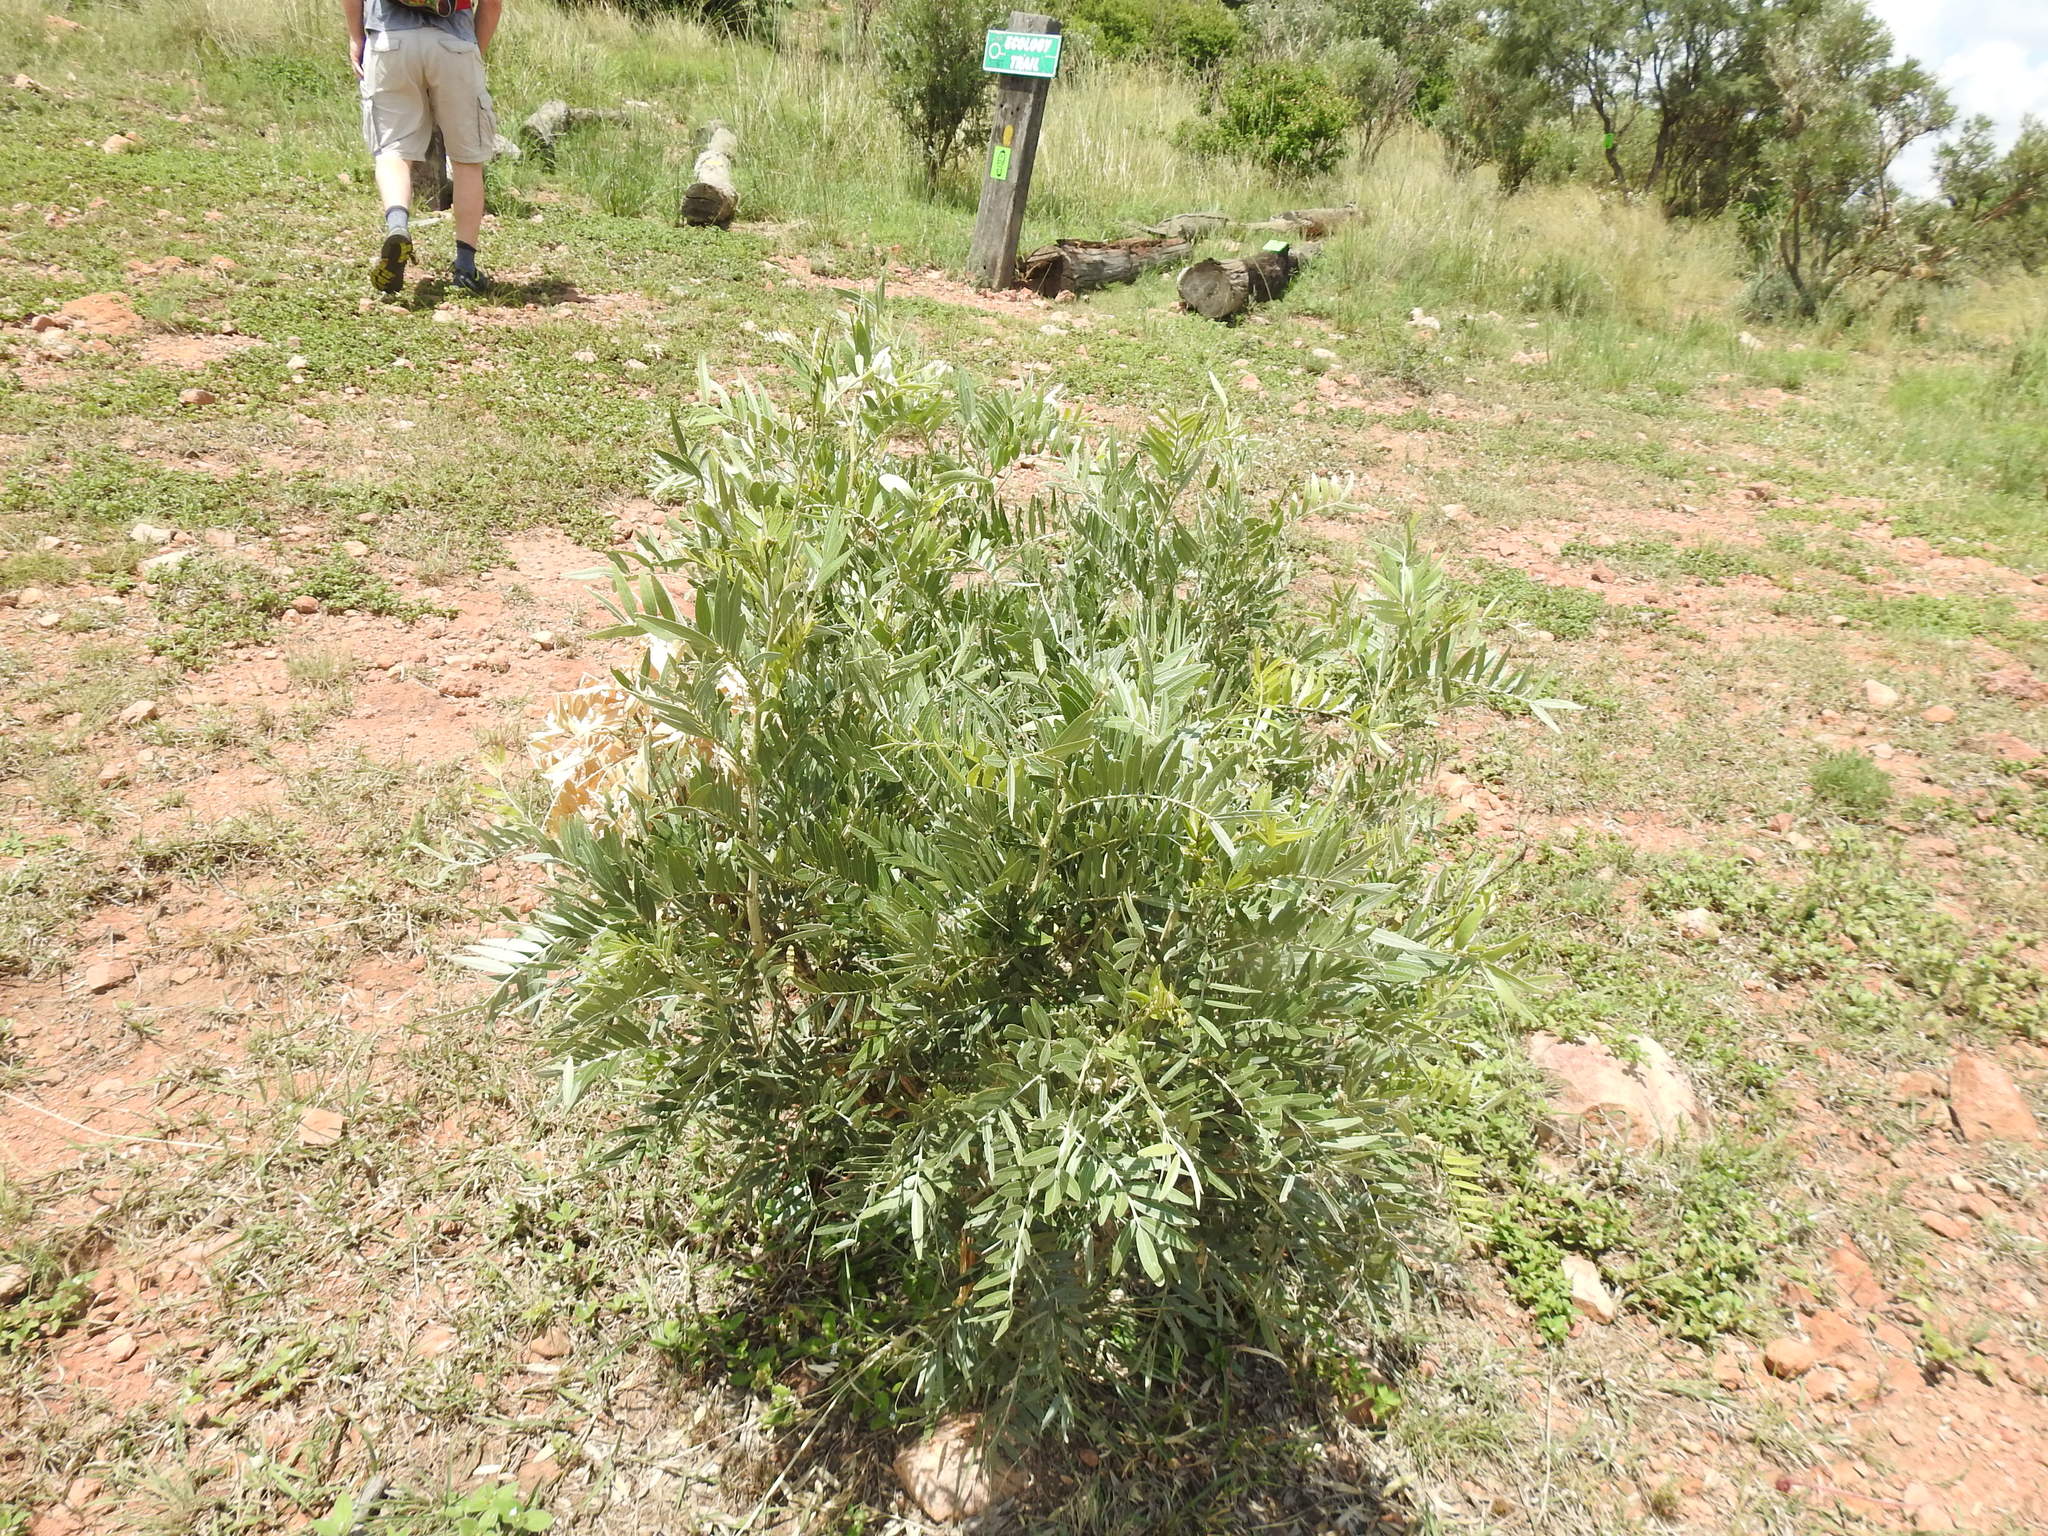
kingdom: Plantae
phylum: Tracheophyta
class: Magnoliopsida
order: Fabales
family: Fabaceae
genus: Mundulea
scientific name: Mundulea sericea
